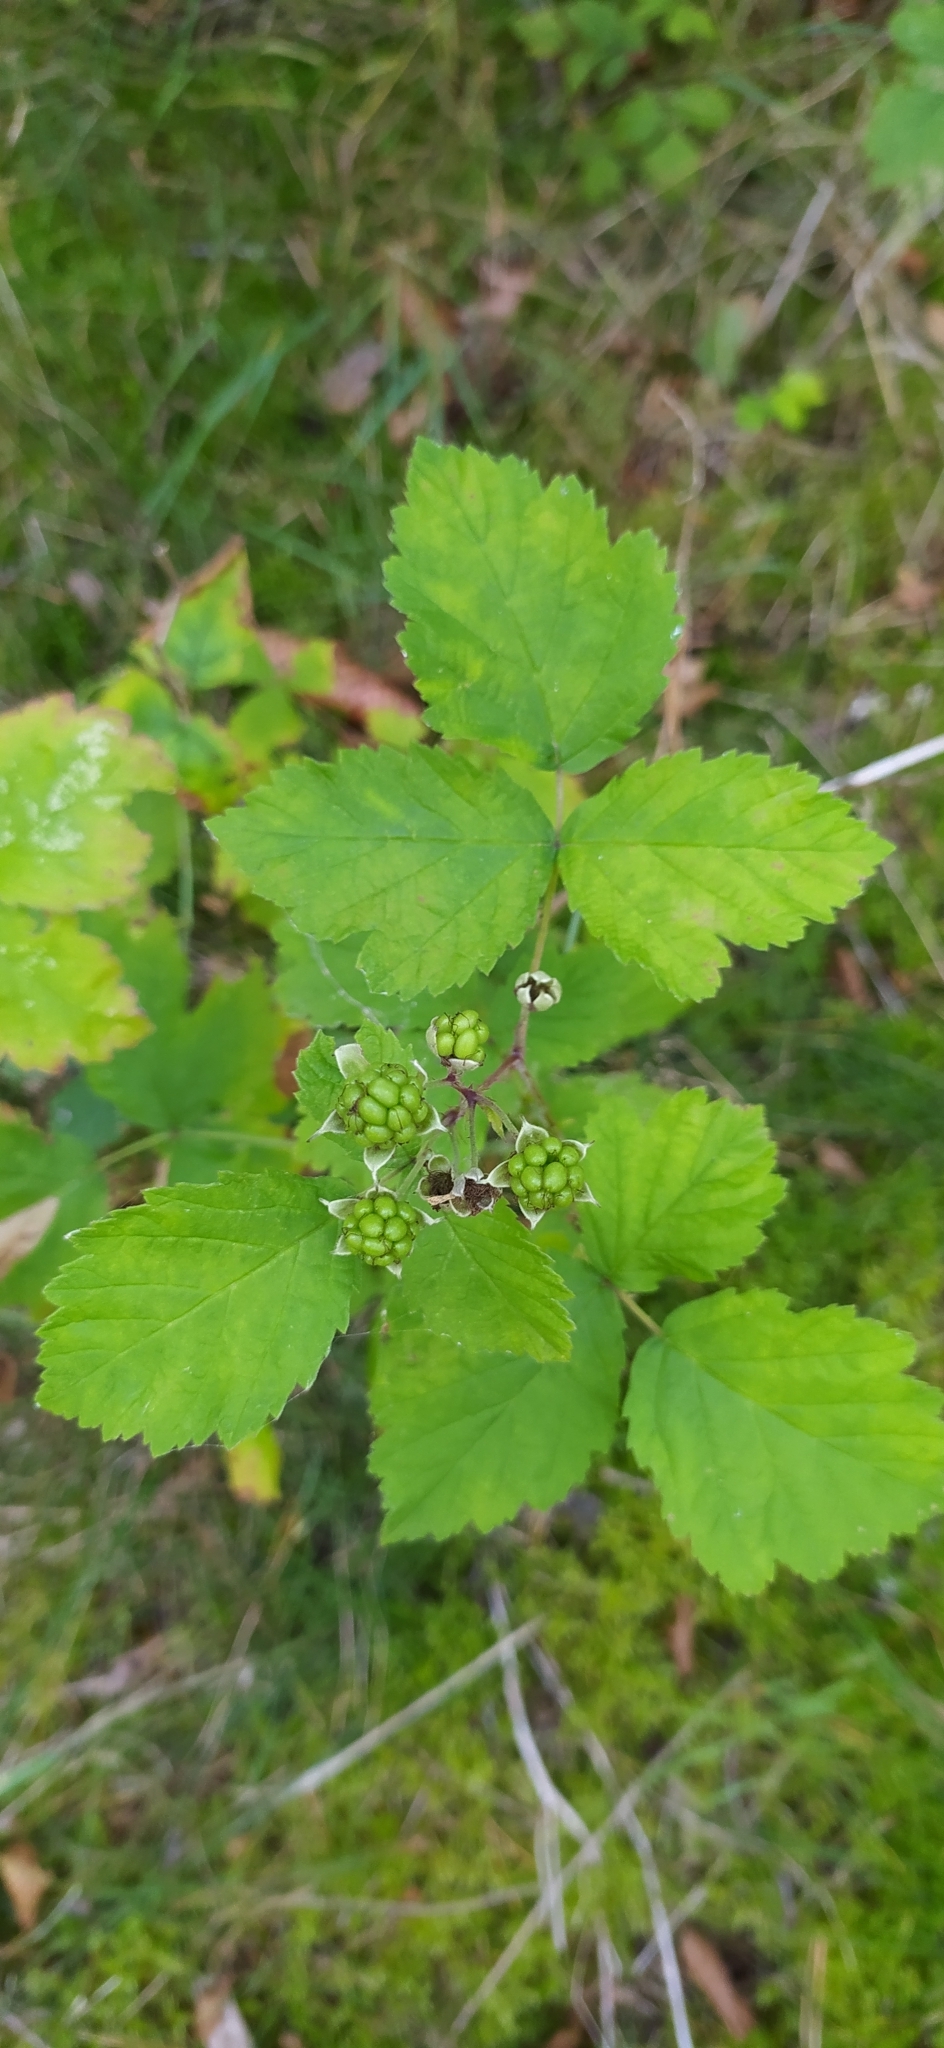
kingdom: Plantae
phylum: Tracheophyta
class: Magnoliopsida
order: Rosales
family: Rosaceae
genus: Rubus
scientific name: Rubus caesius
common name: Dewberry
